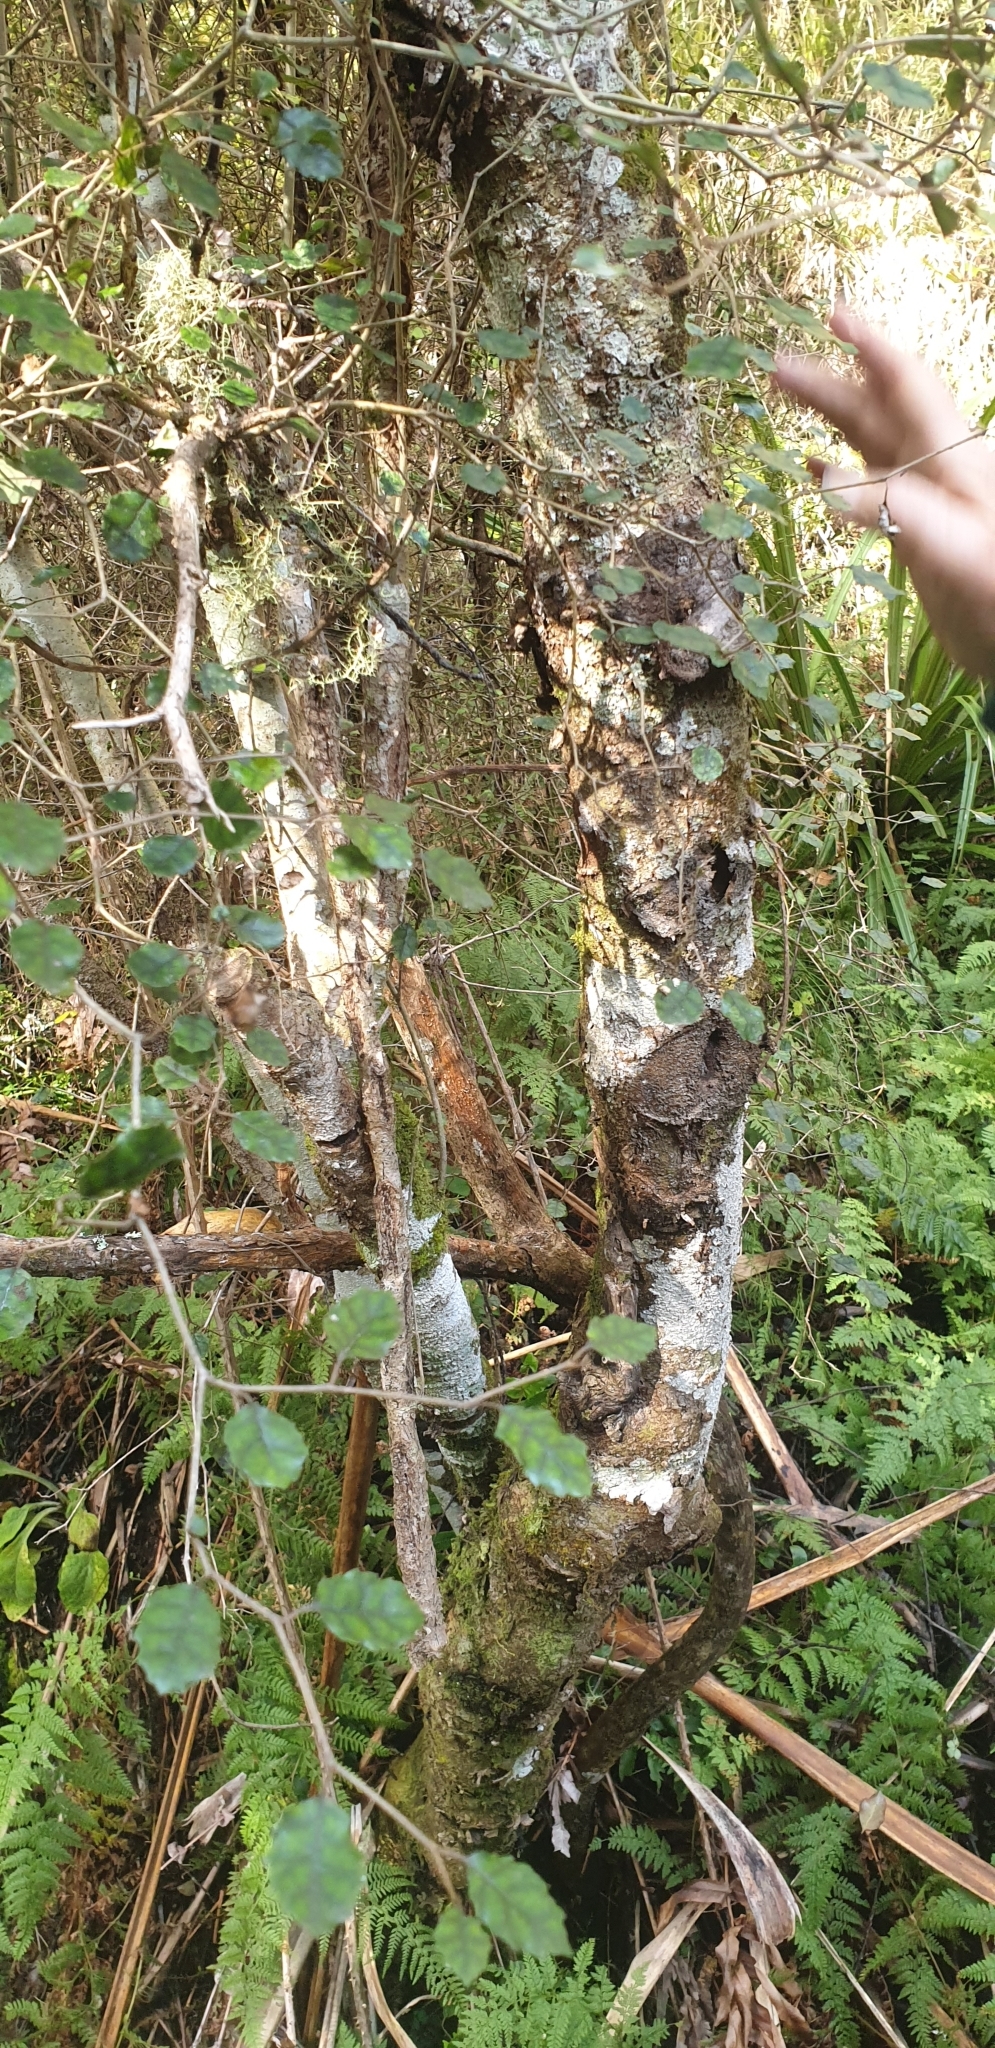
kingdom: Plantae
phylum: Tracheophyta
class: Magnoliopsida
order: Asterales
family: Rousseaceae
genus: Carpodetus
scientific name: Carpodetus serratus
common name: White mapau
